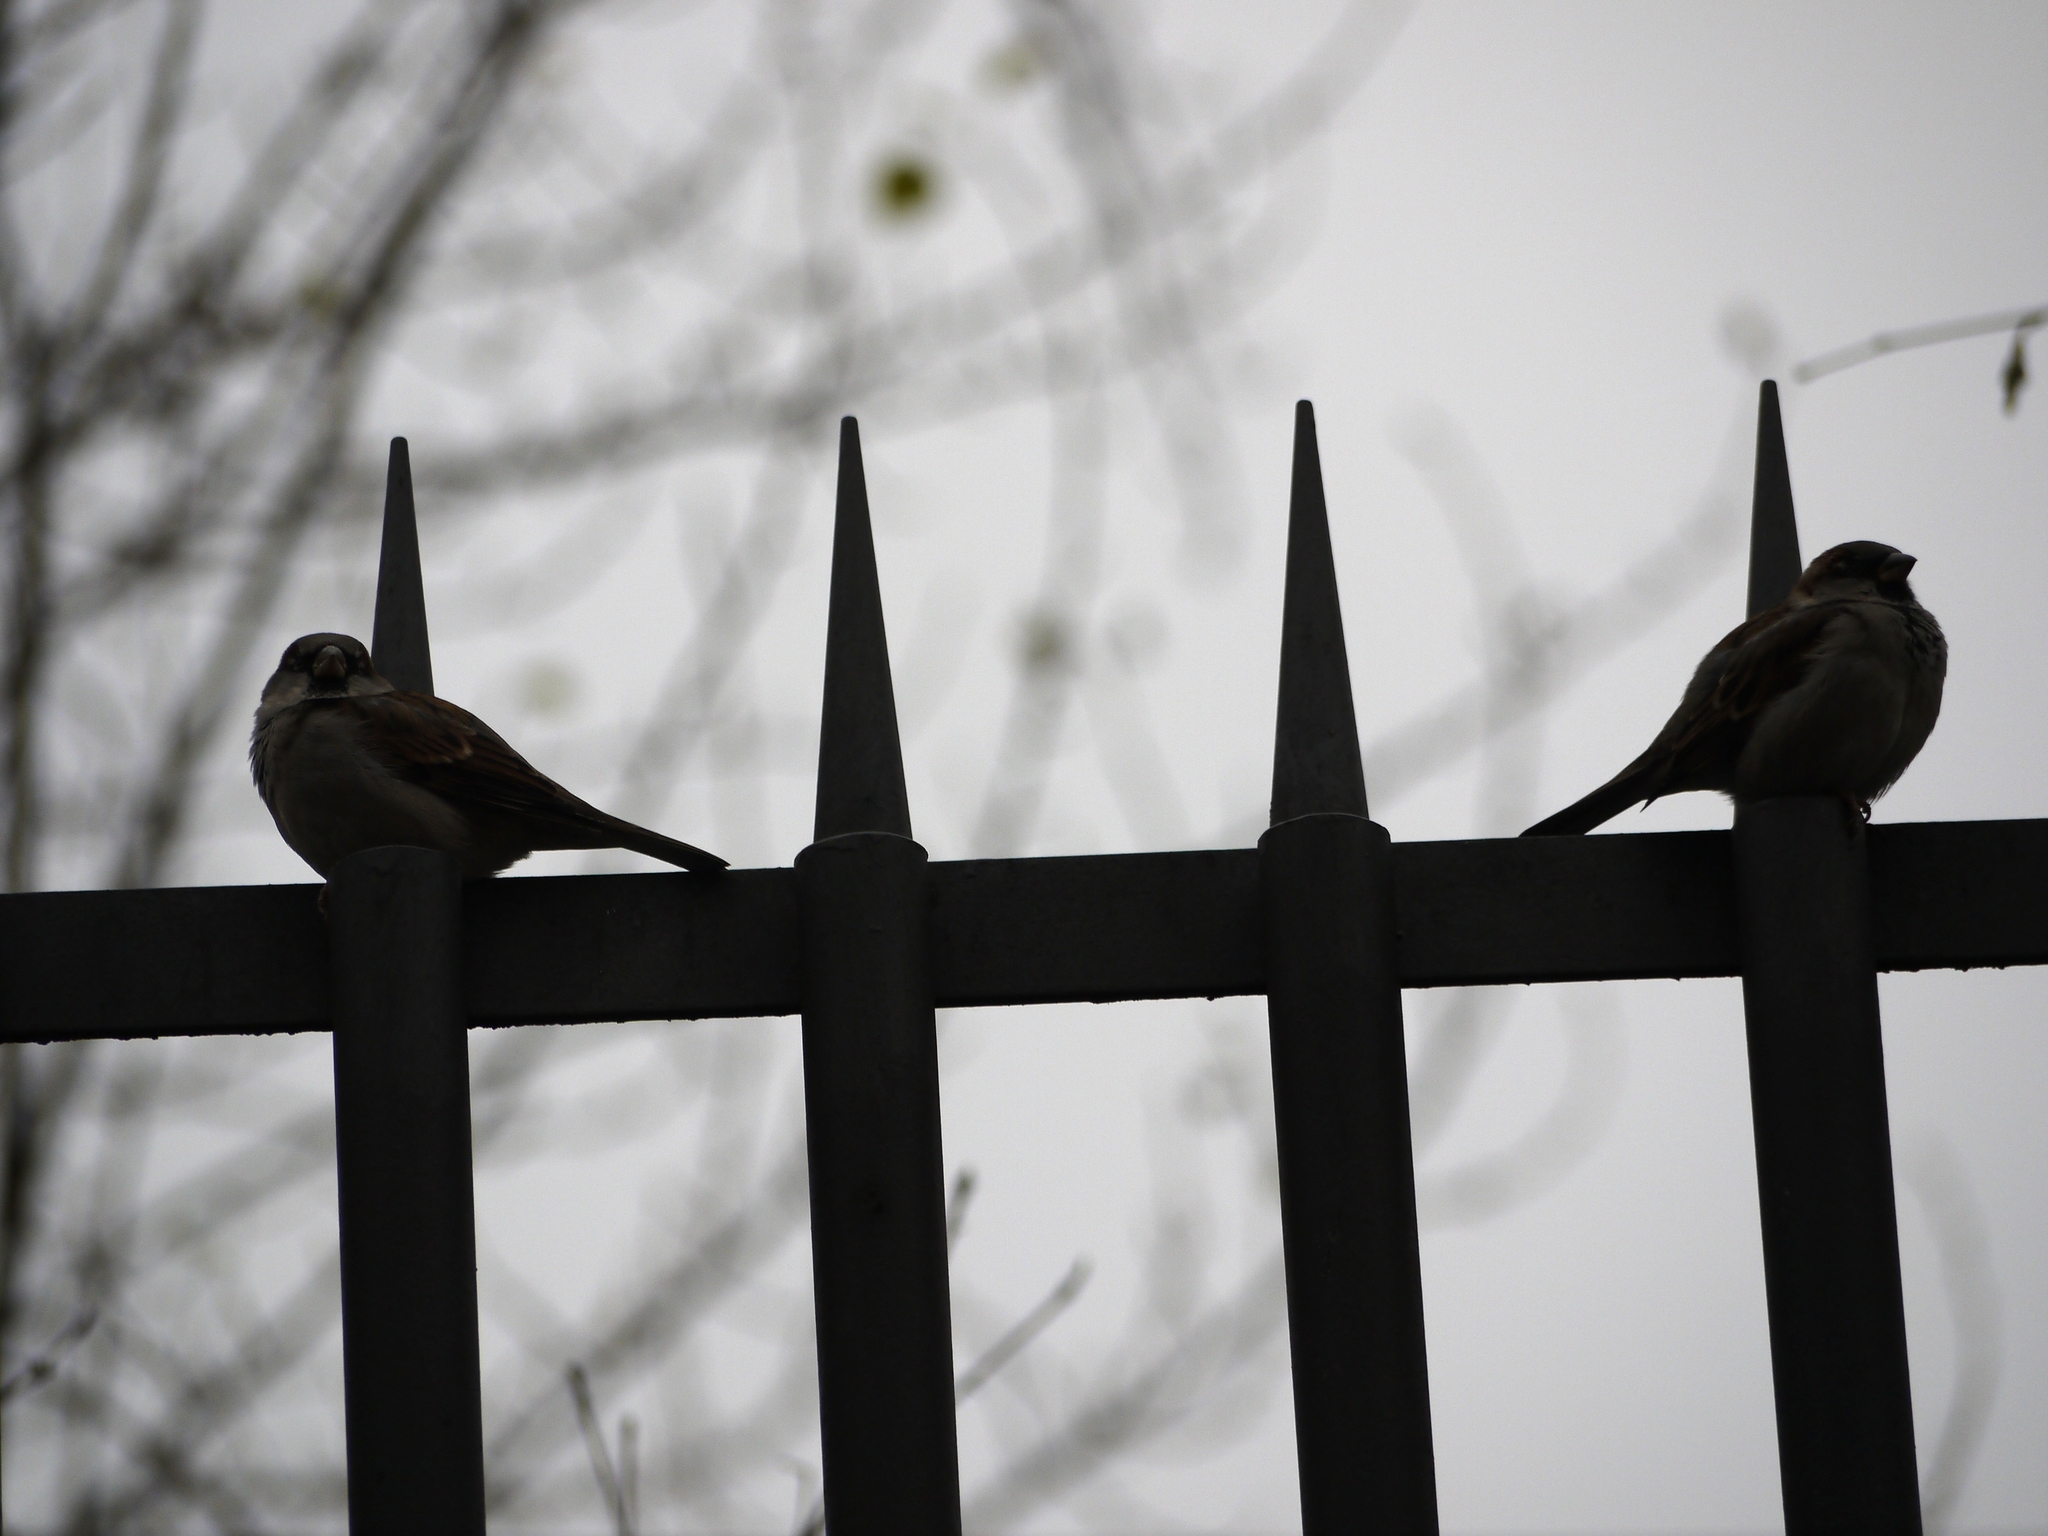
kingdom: Animalia
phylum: Chordata
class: Aves
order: Passeriformes
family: Passeridae
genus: Passer
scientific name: Passer domesticus
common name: House sparrow
